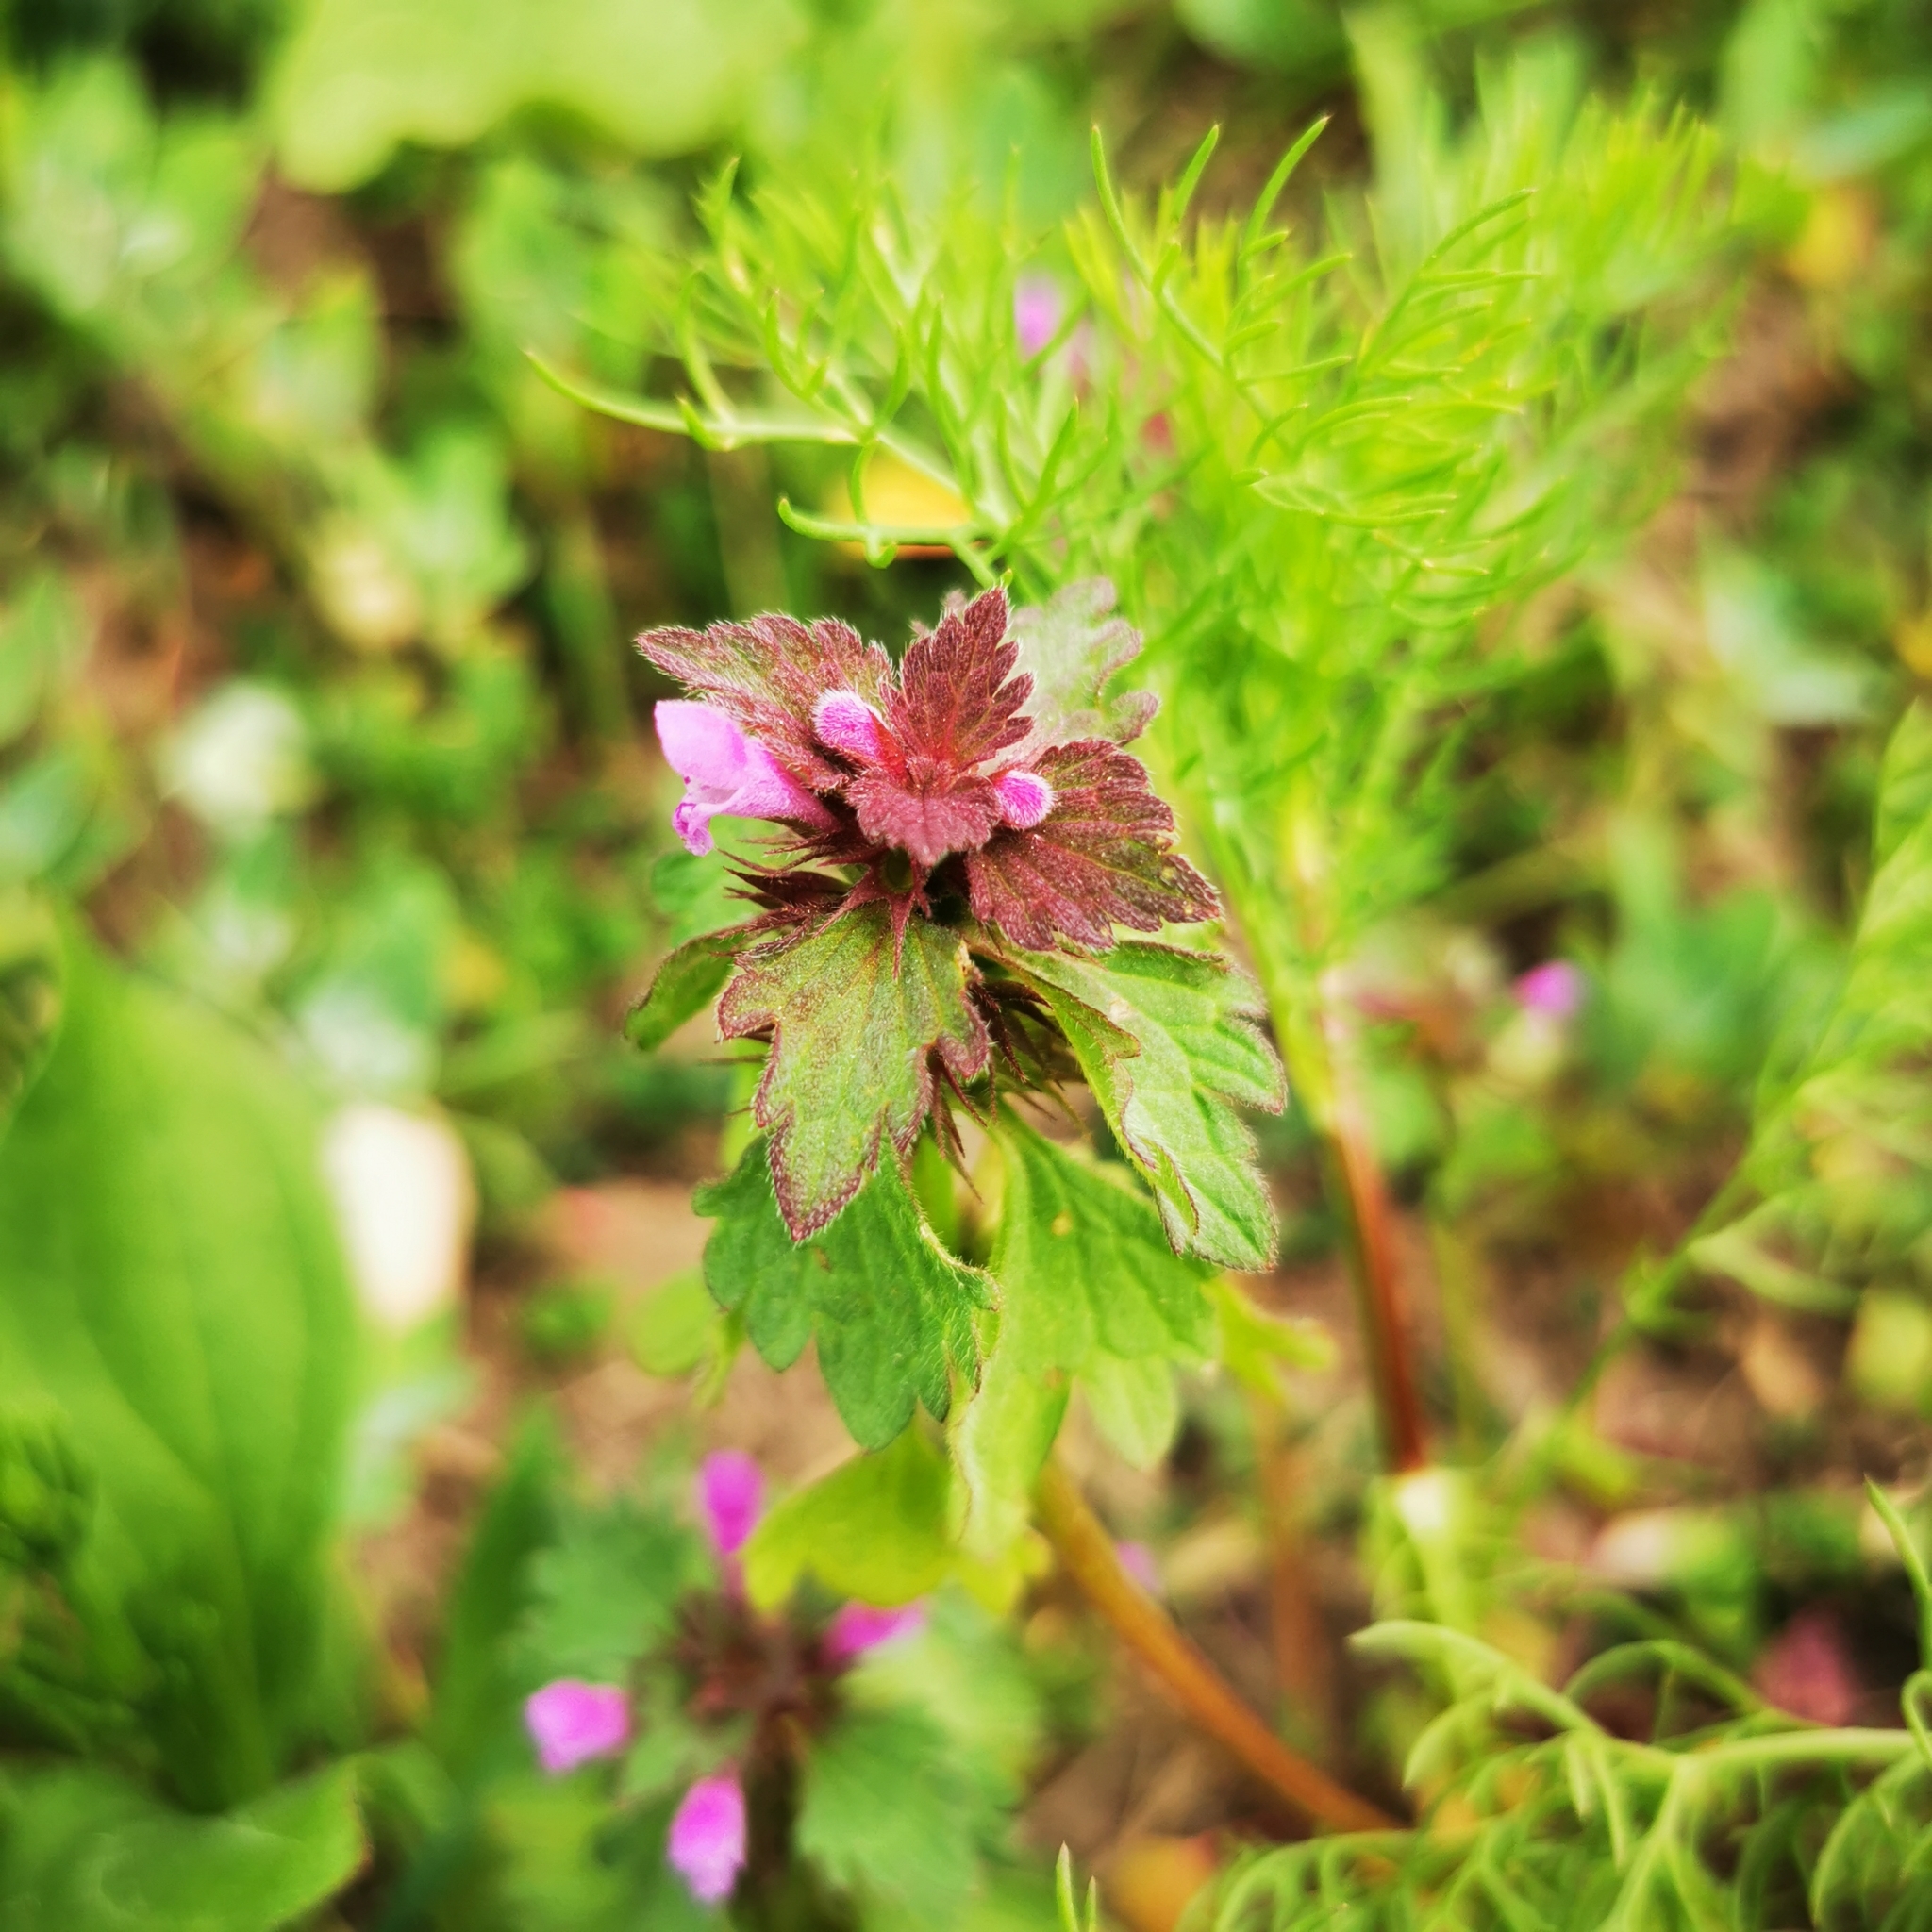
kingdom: Plantae
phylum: Tracheophyta
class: Magnoliopsida
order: Lamiales
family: Lamiaceae
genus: Lamium
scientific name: Lamium hybridum
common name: Cut-leaved dead-nettle
